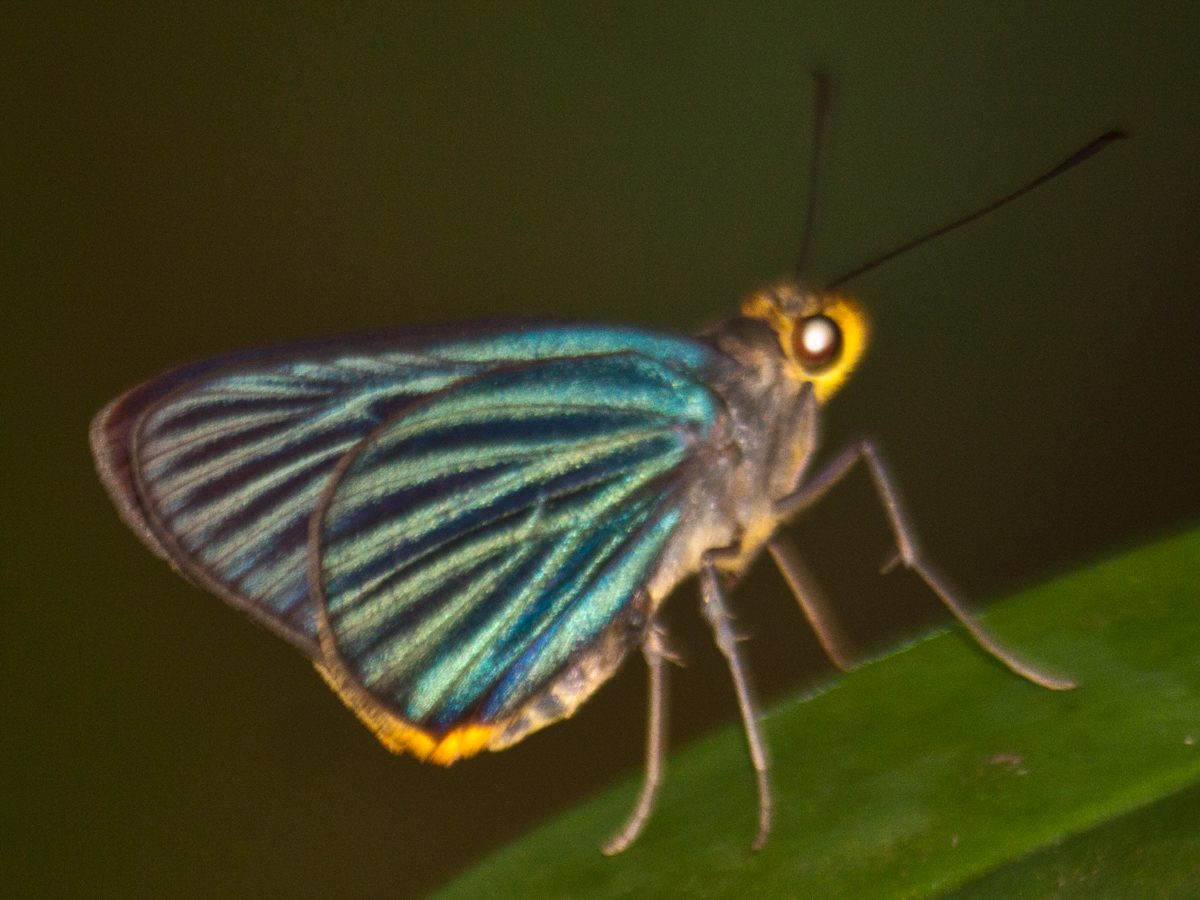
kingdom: Animalia
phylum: Arthropoda
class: Insecta
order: Lepidoptera
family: Hesperiidae
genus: Pirdana
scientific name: Pirdana hyela
